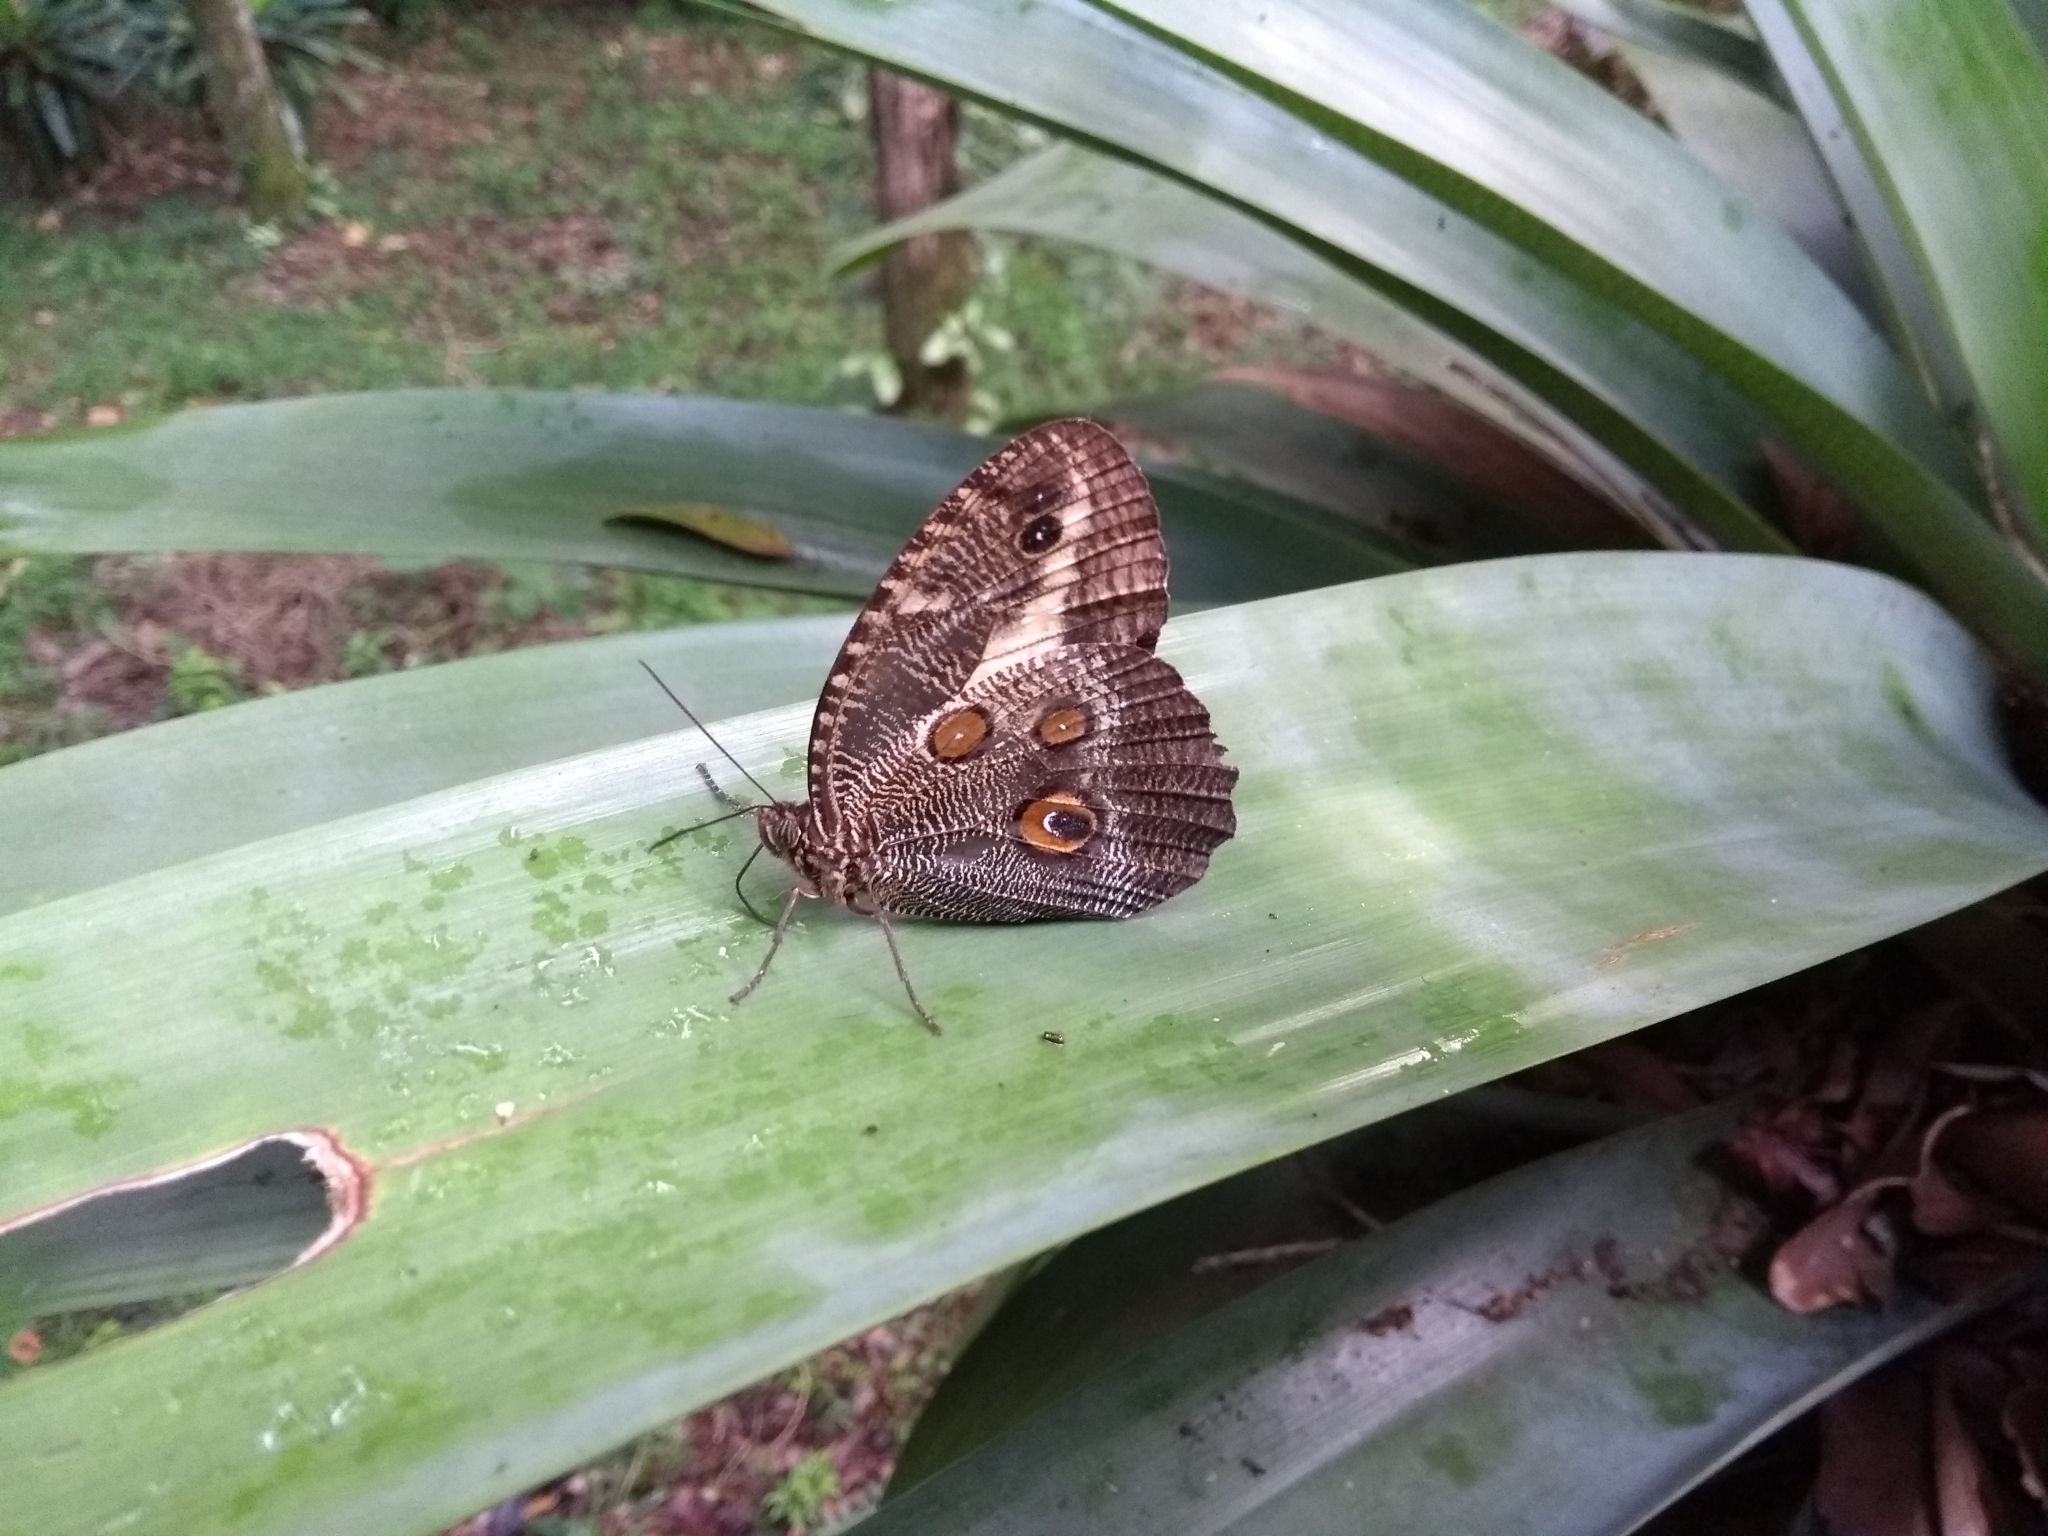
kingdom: Animalia
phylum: Arthropoda
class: Insecta
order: Lepidoptera
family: Nymphalidae
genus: Dasyophthalma
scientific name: Dasyophthalma creusa
